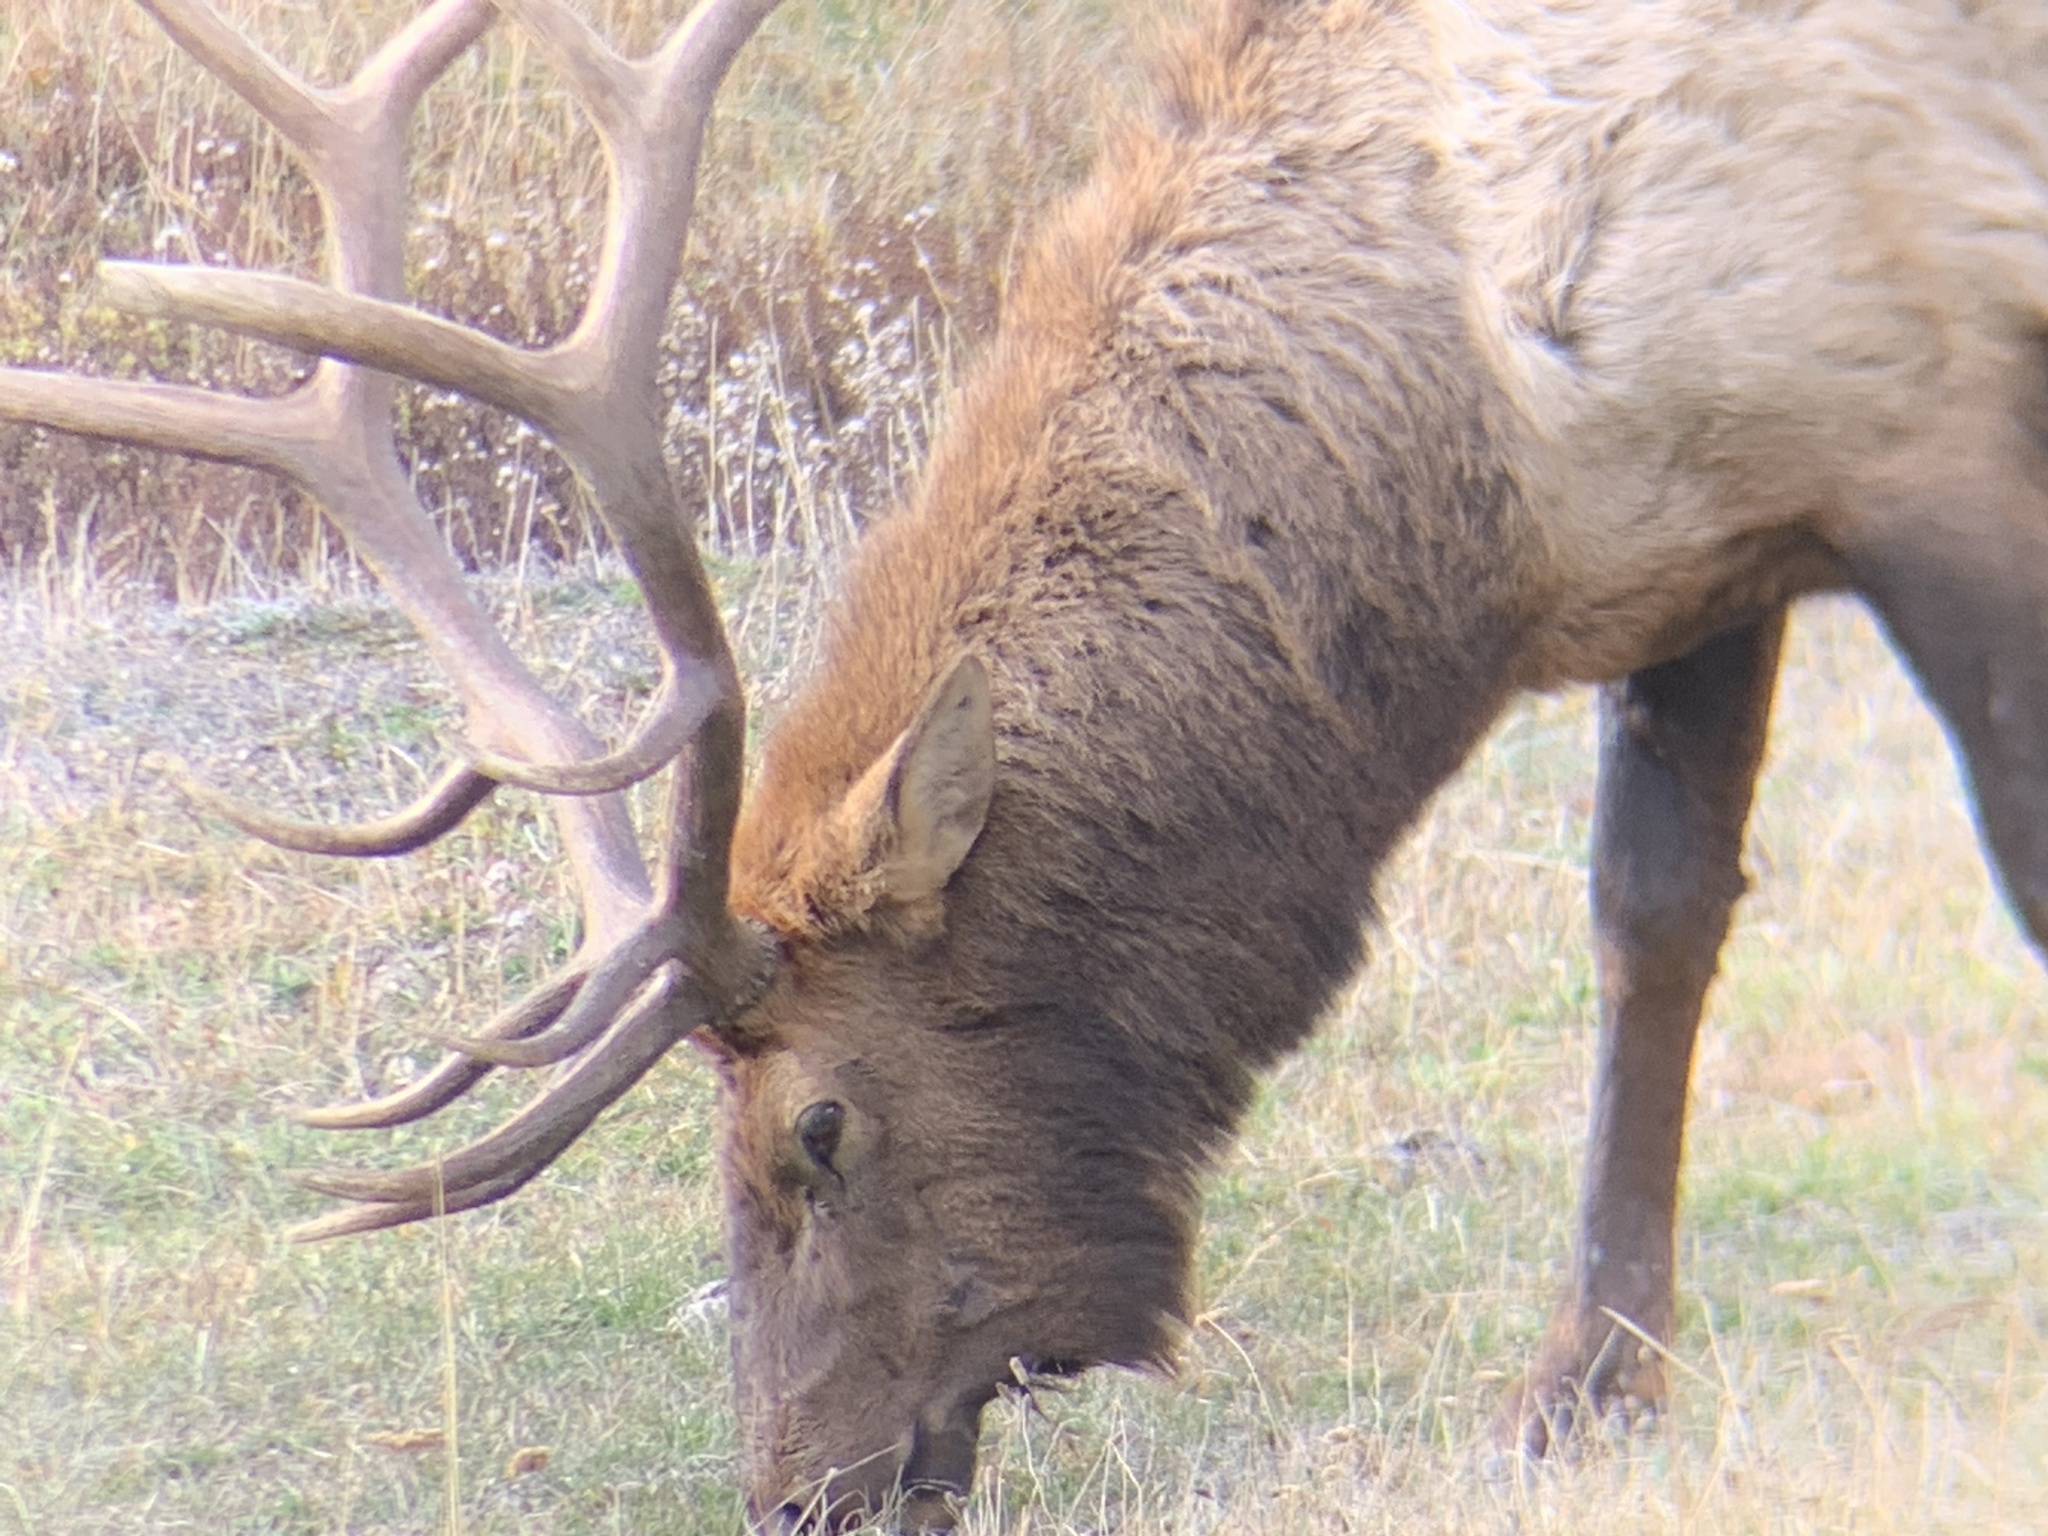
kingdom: Animalia
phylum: Chordata
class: Mammalia
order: Artiodactyla
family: Cervidae
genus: Cervus
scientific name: Cervus elaphus
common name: Red deer
